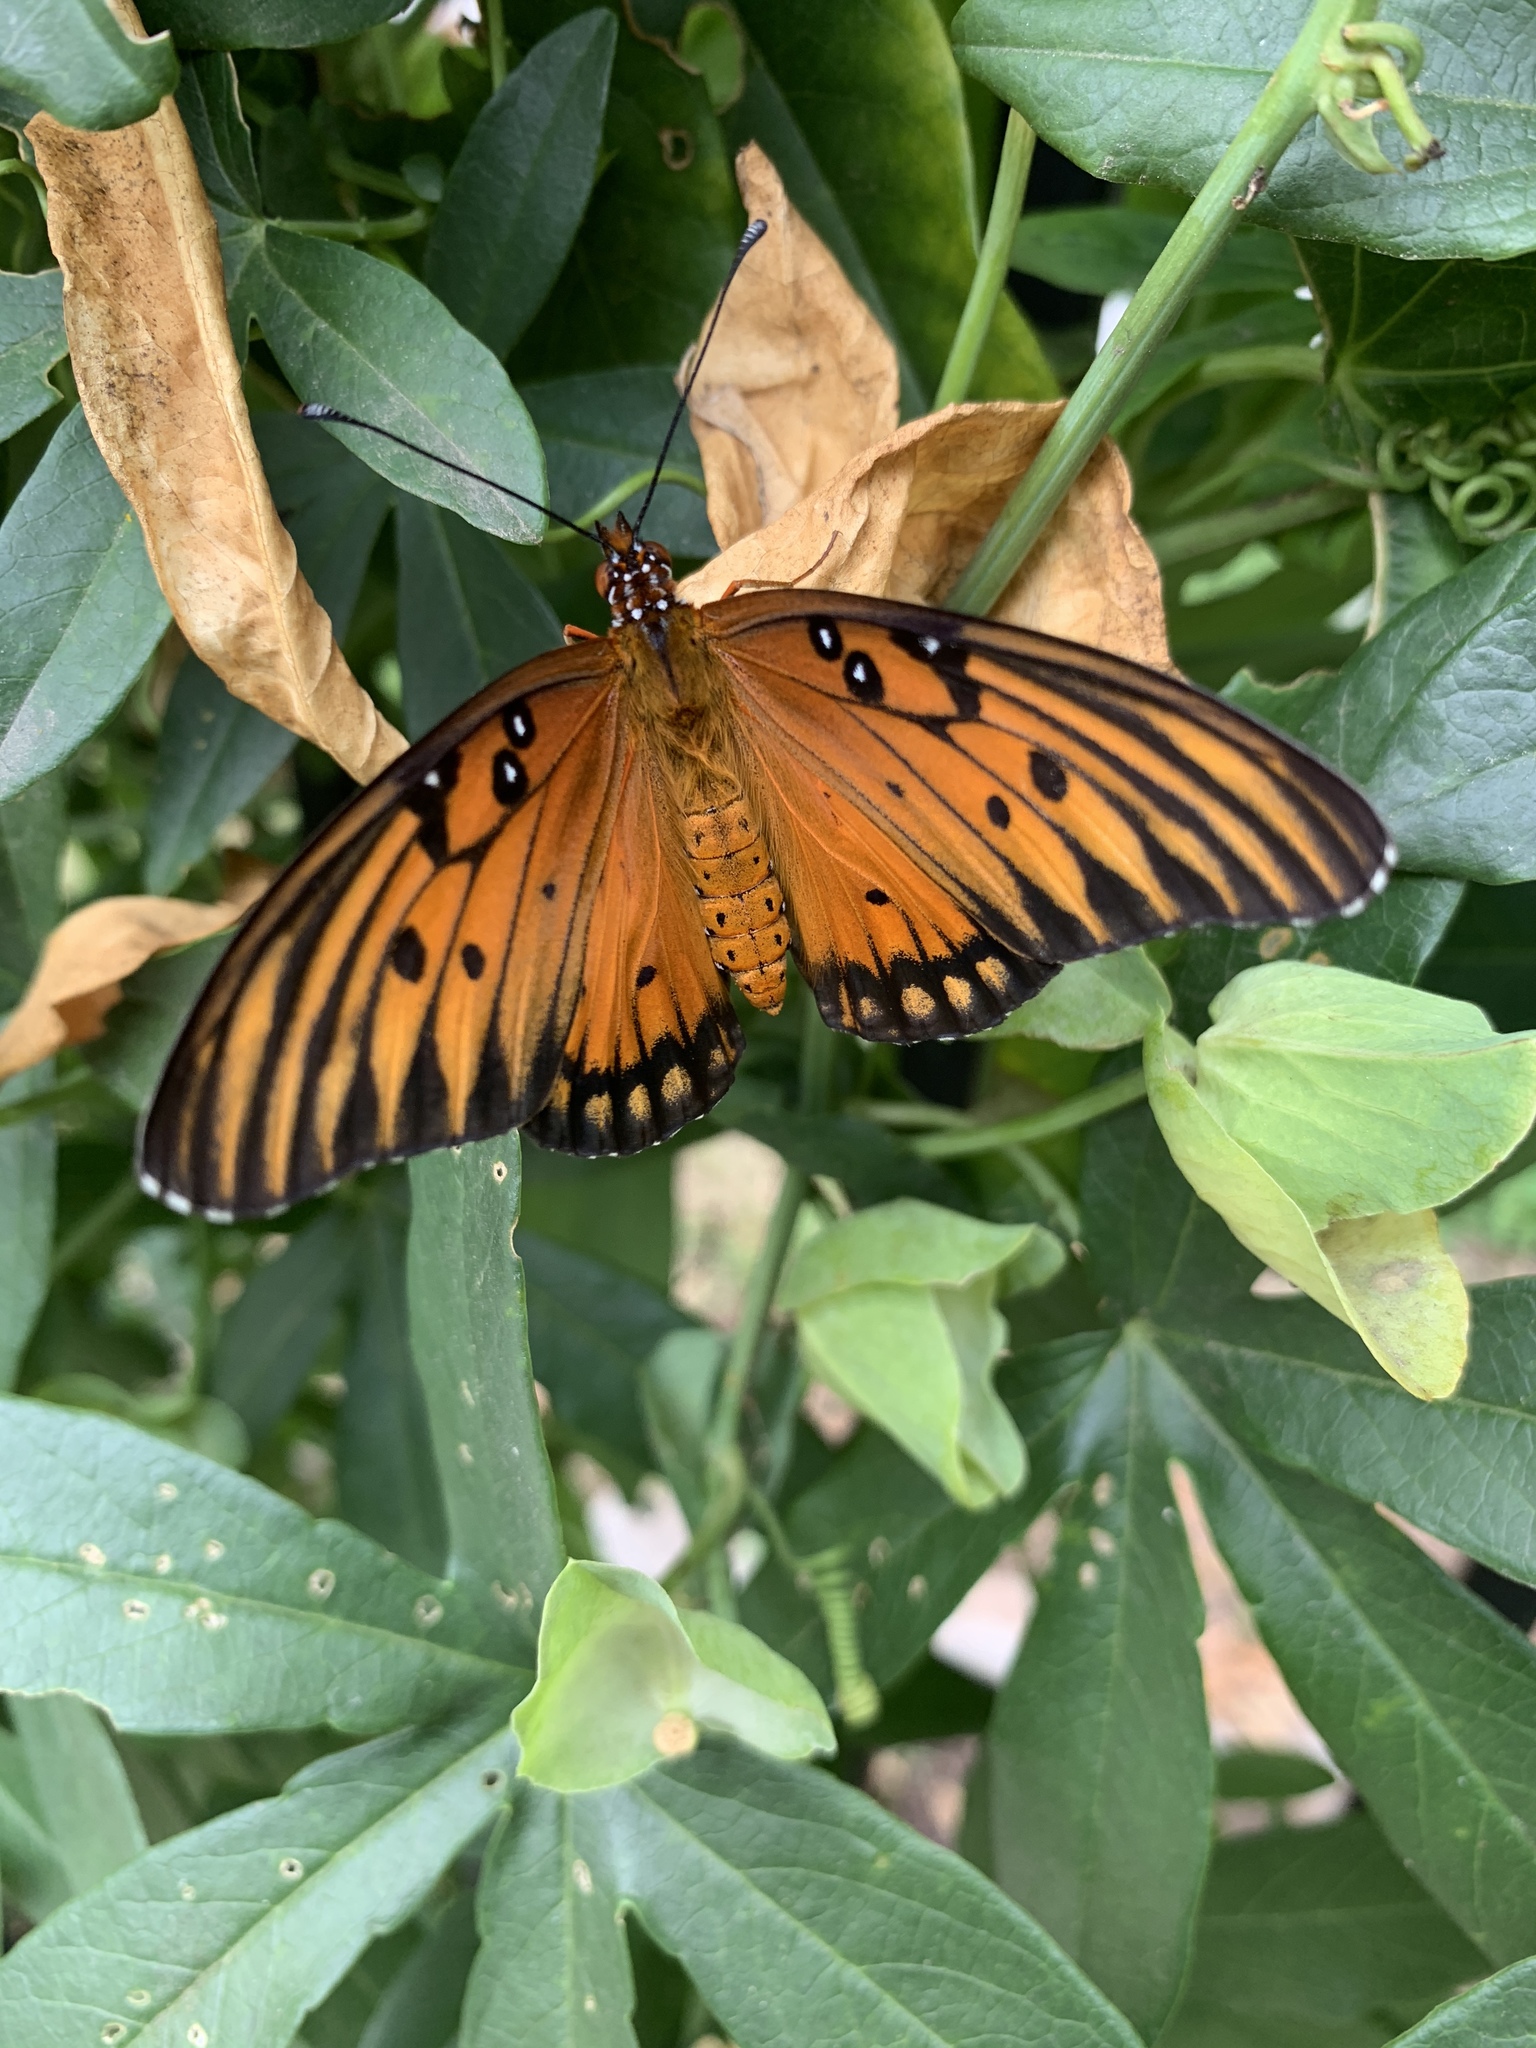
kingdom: Animalia
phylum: Arthropoda
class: Insecta
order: Lepidoptera
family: Nymphalidae
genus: Dione
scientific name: Dione vanillae
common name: Gulf fritillary
